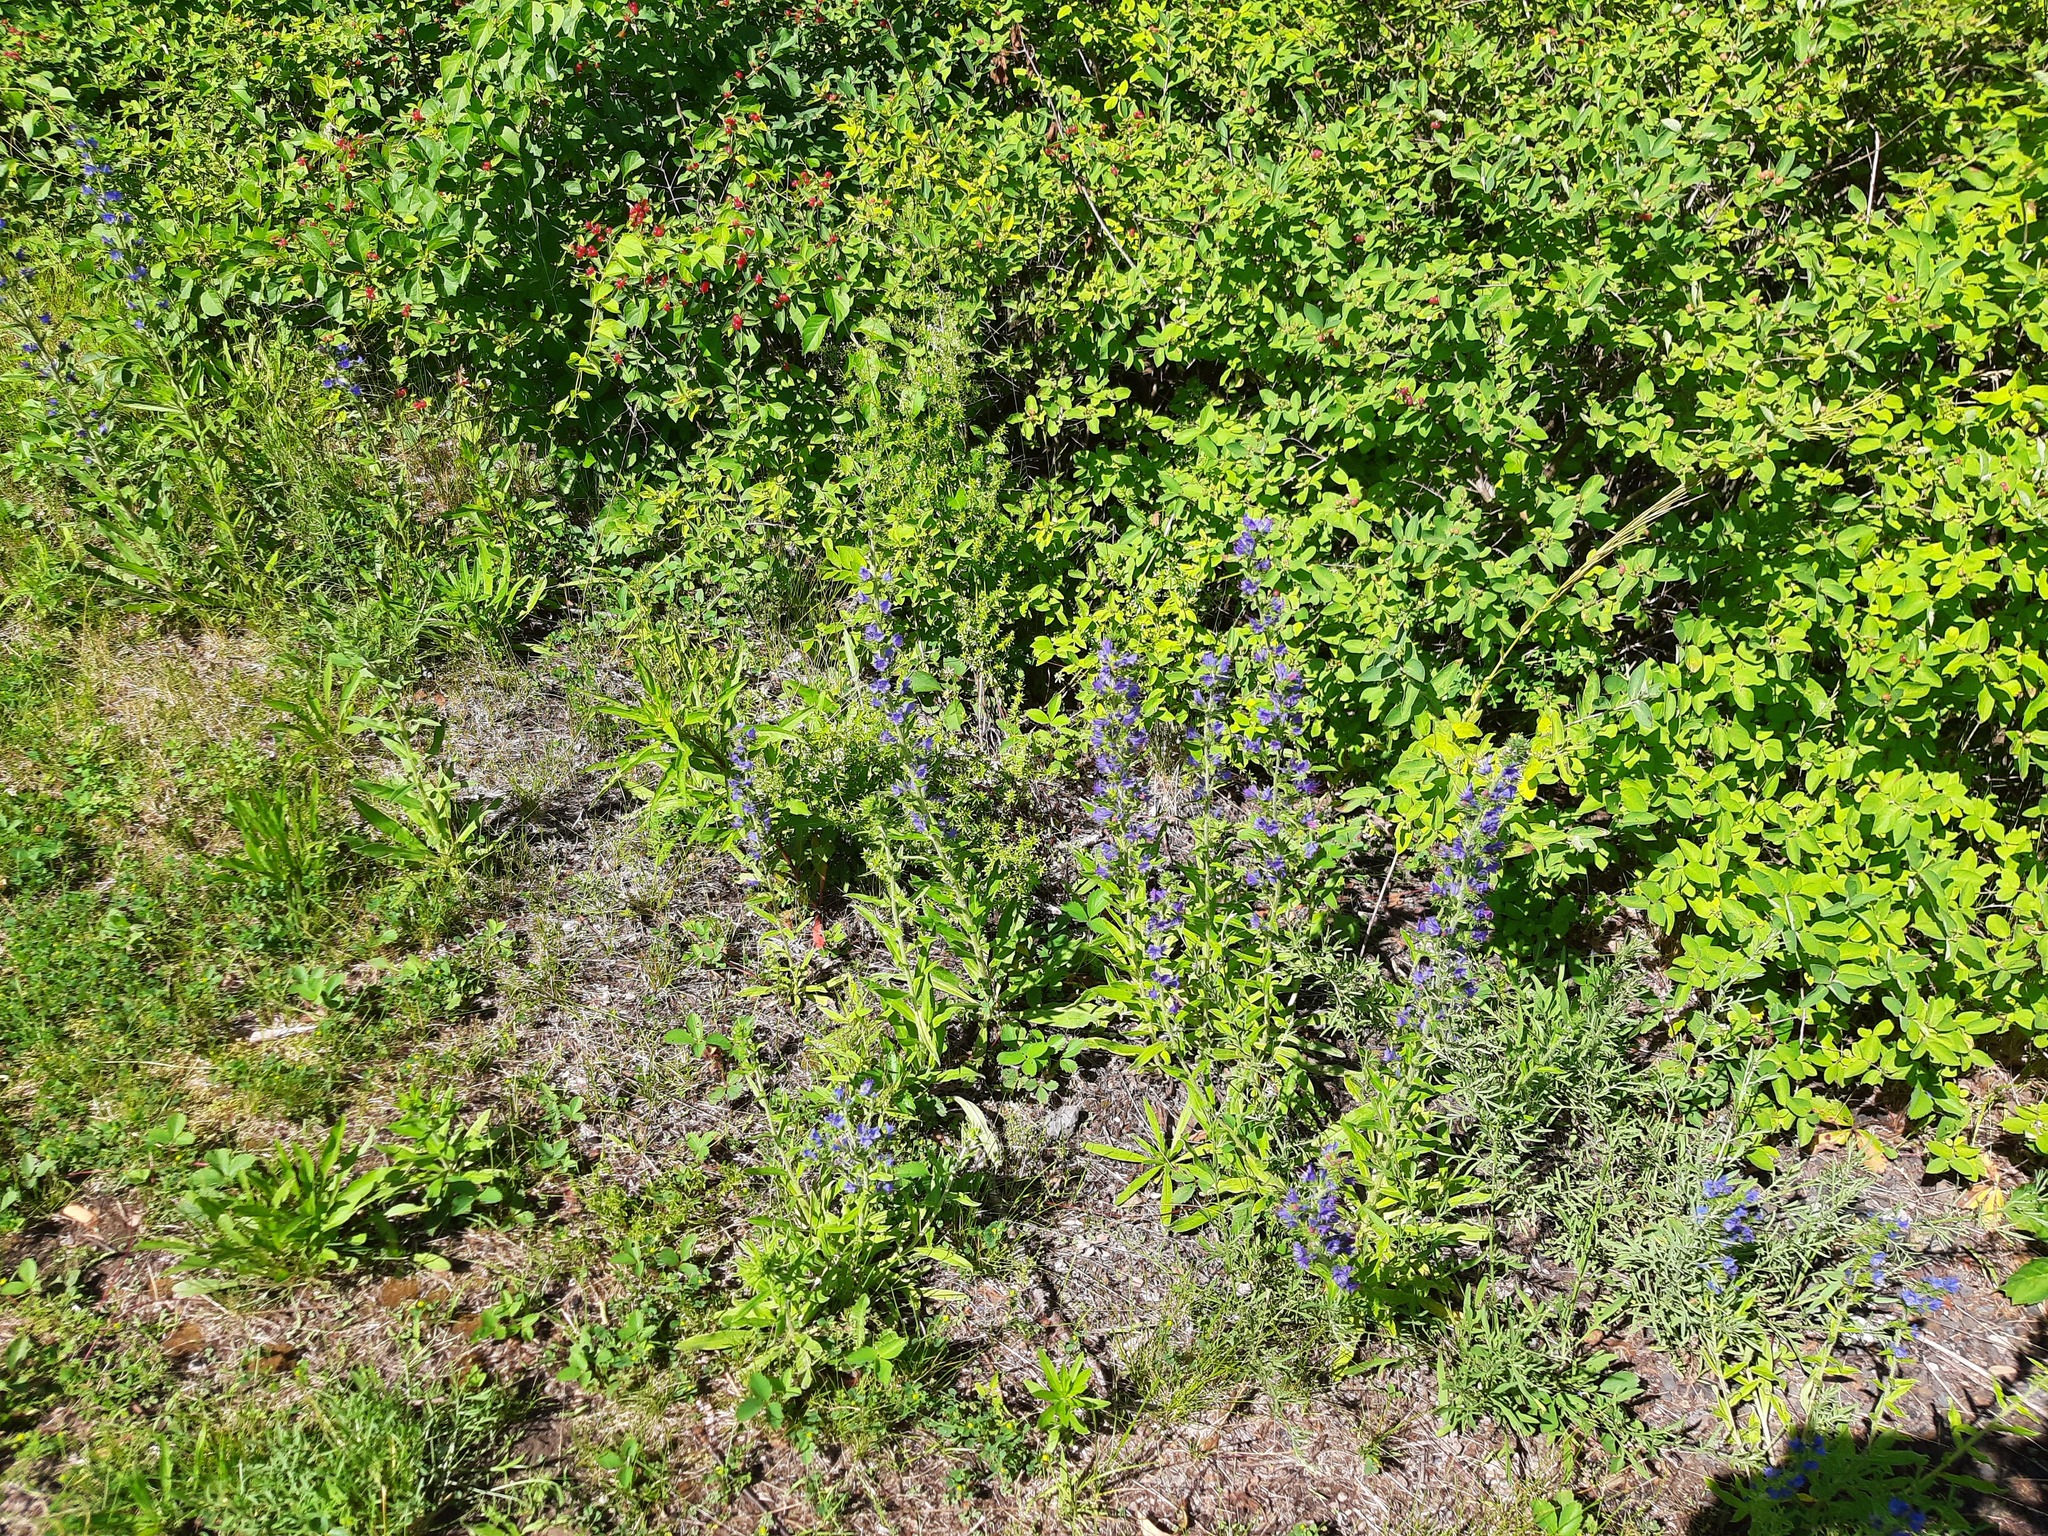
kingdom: Plantae
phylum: Tracheophyta
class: Magnoliopsida
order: Boraginales
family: Boraginaceae
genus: Echium
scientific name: Echium vulgare
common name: Common viper's bugloss
